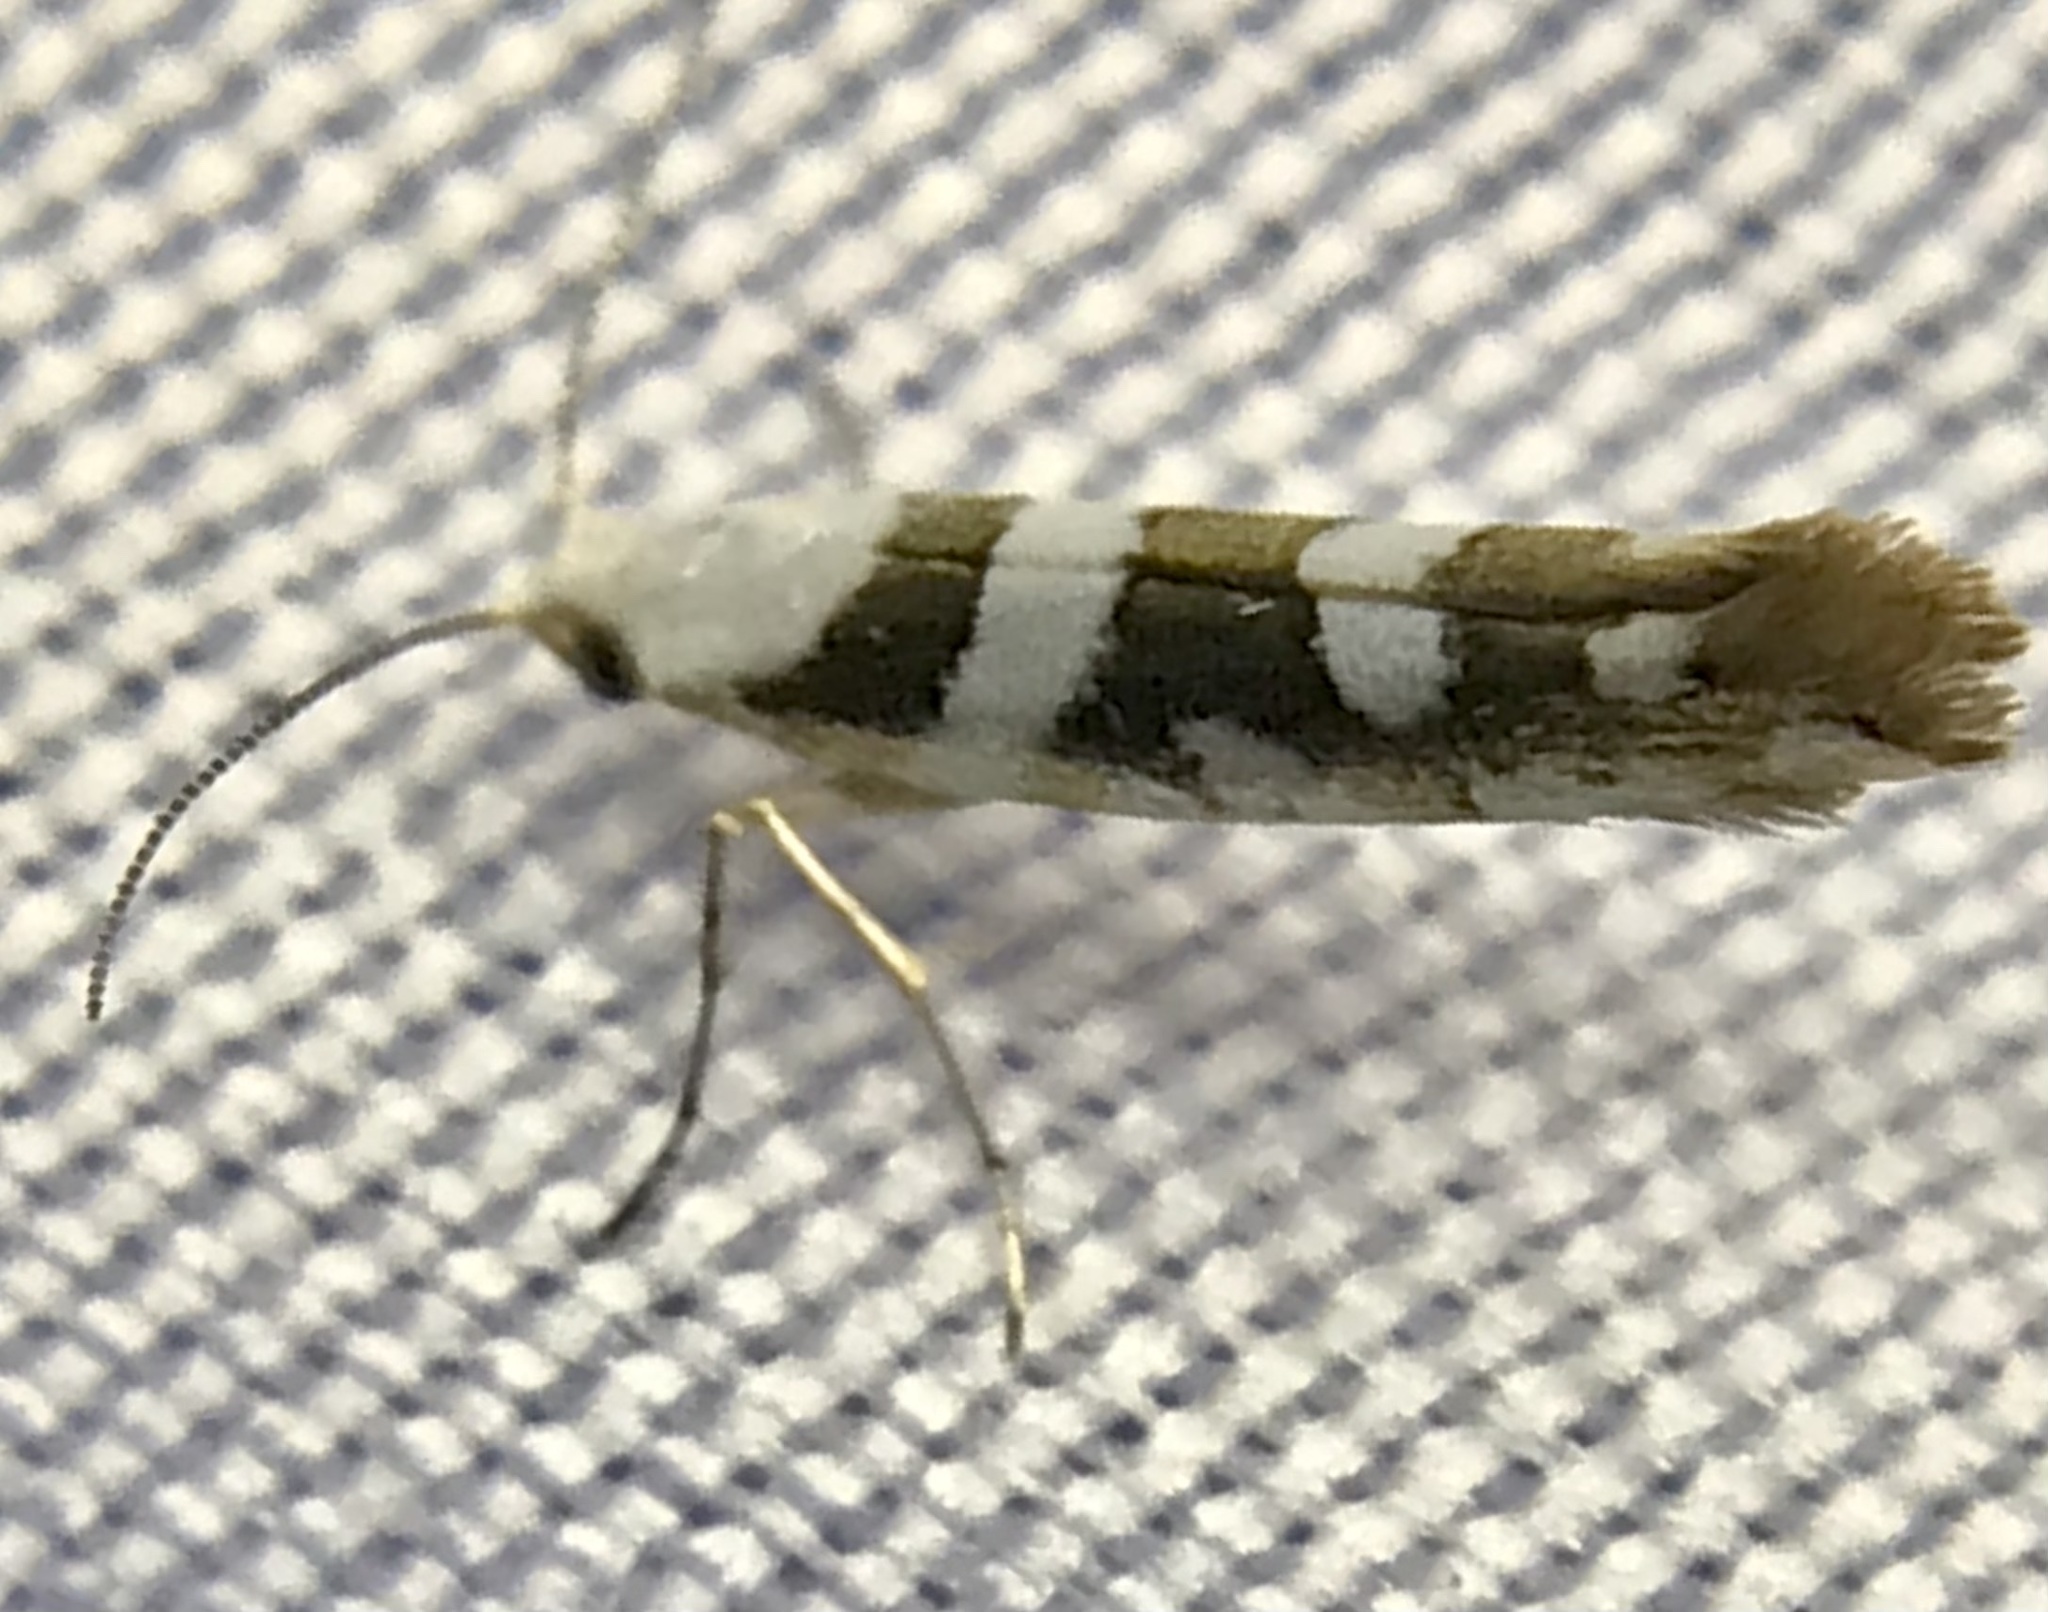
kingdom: Animalia
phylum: Arthropoda
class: Insecta
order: Lepidoptera
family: Argyresthiidae
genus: Argyresthia
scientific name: Argyresthia calliphanes
